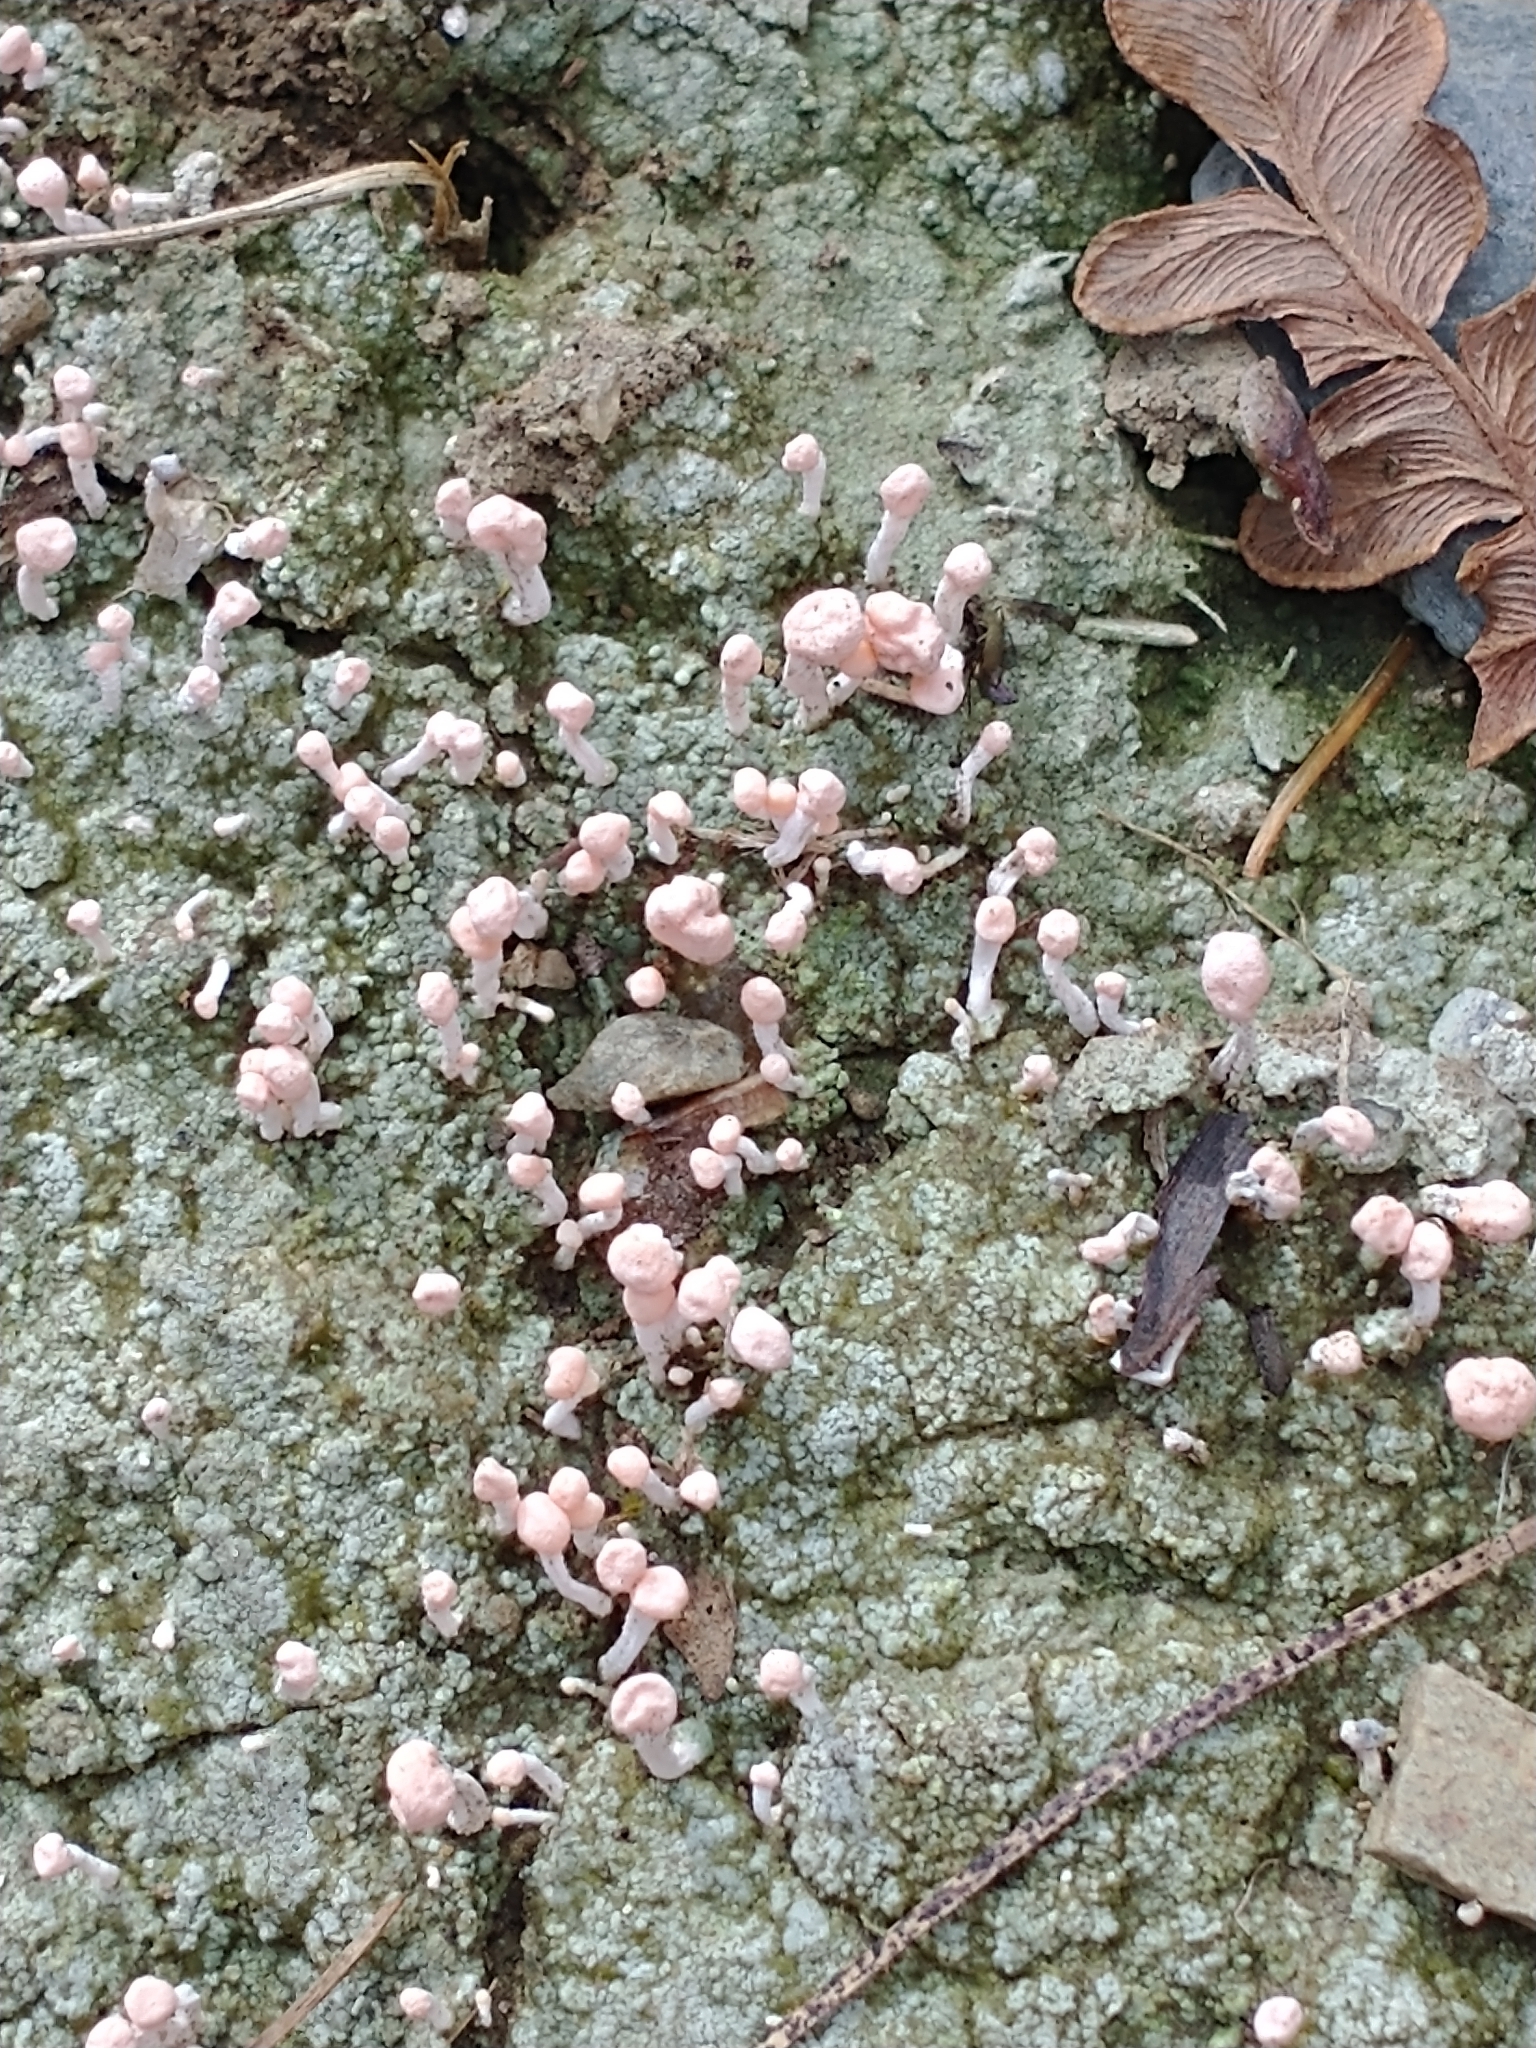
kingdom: Fungi
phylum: Ascomycota
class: Lecanoromycetes
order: Pertusariales
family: Icmadophilaceae
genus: Dibaeis
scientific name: Dibaeis baeomyces
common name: Pink earth lichen
